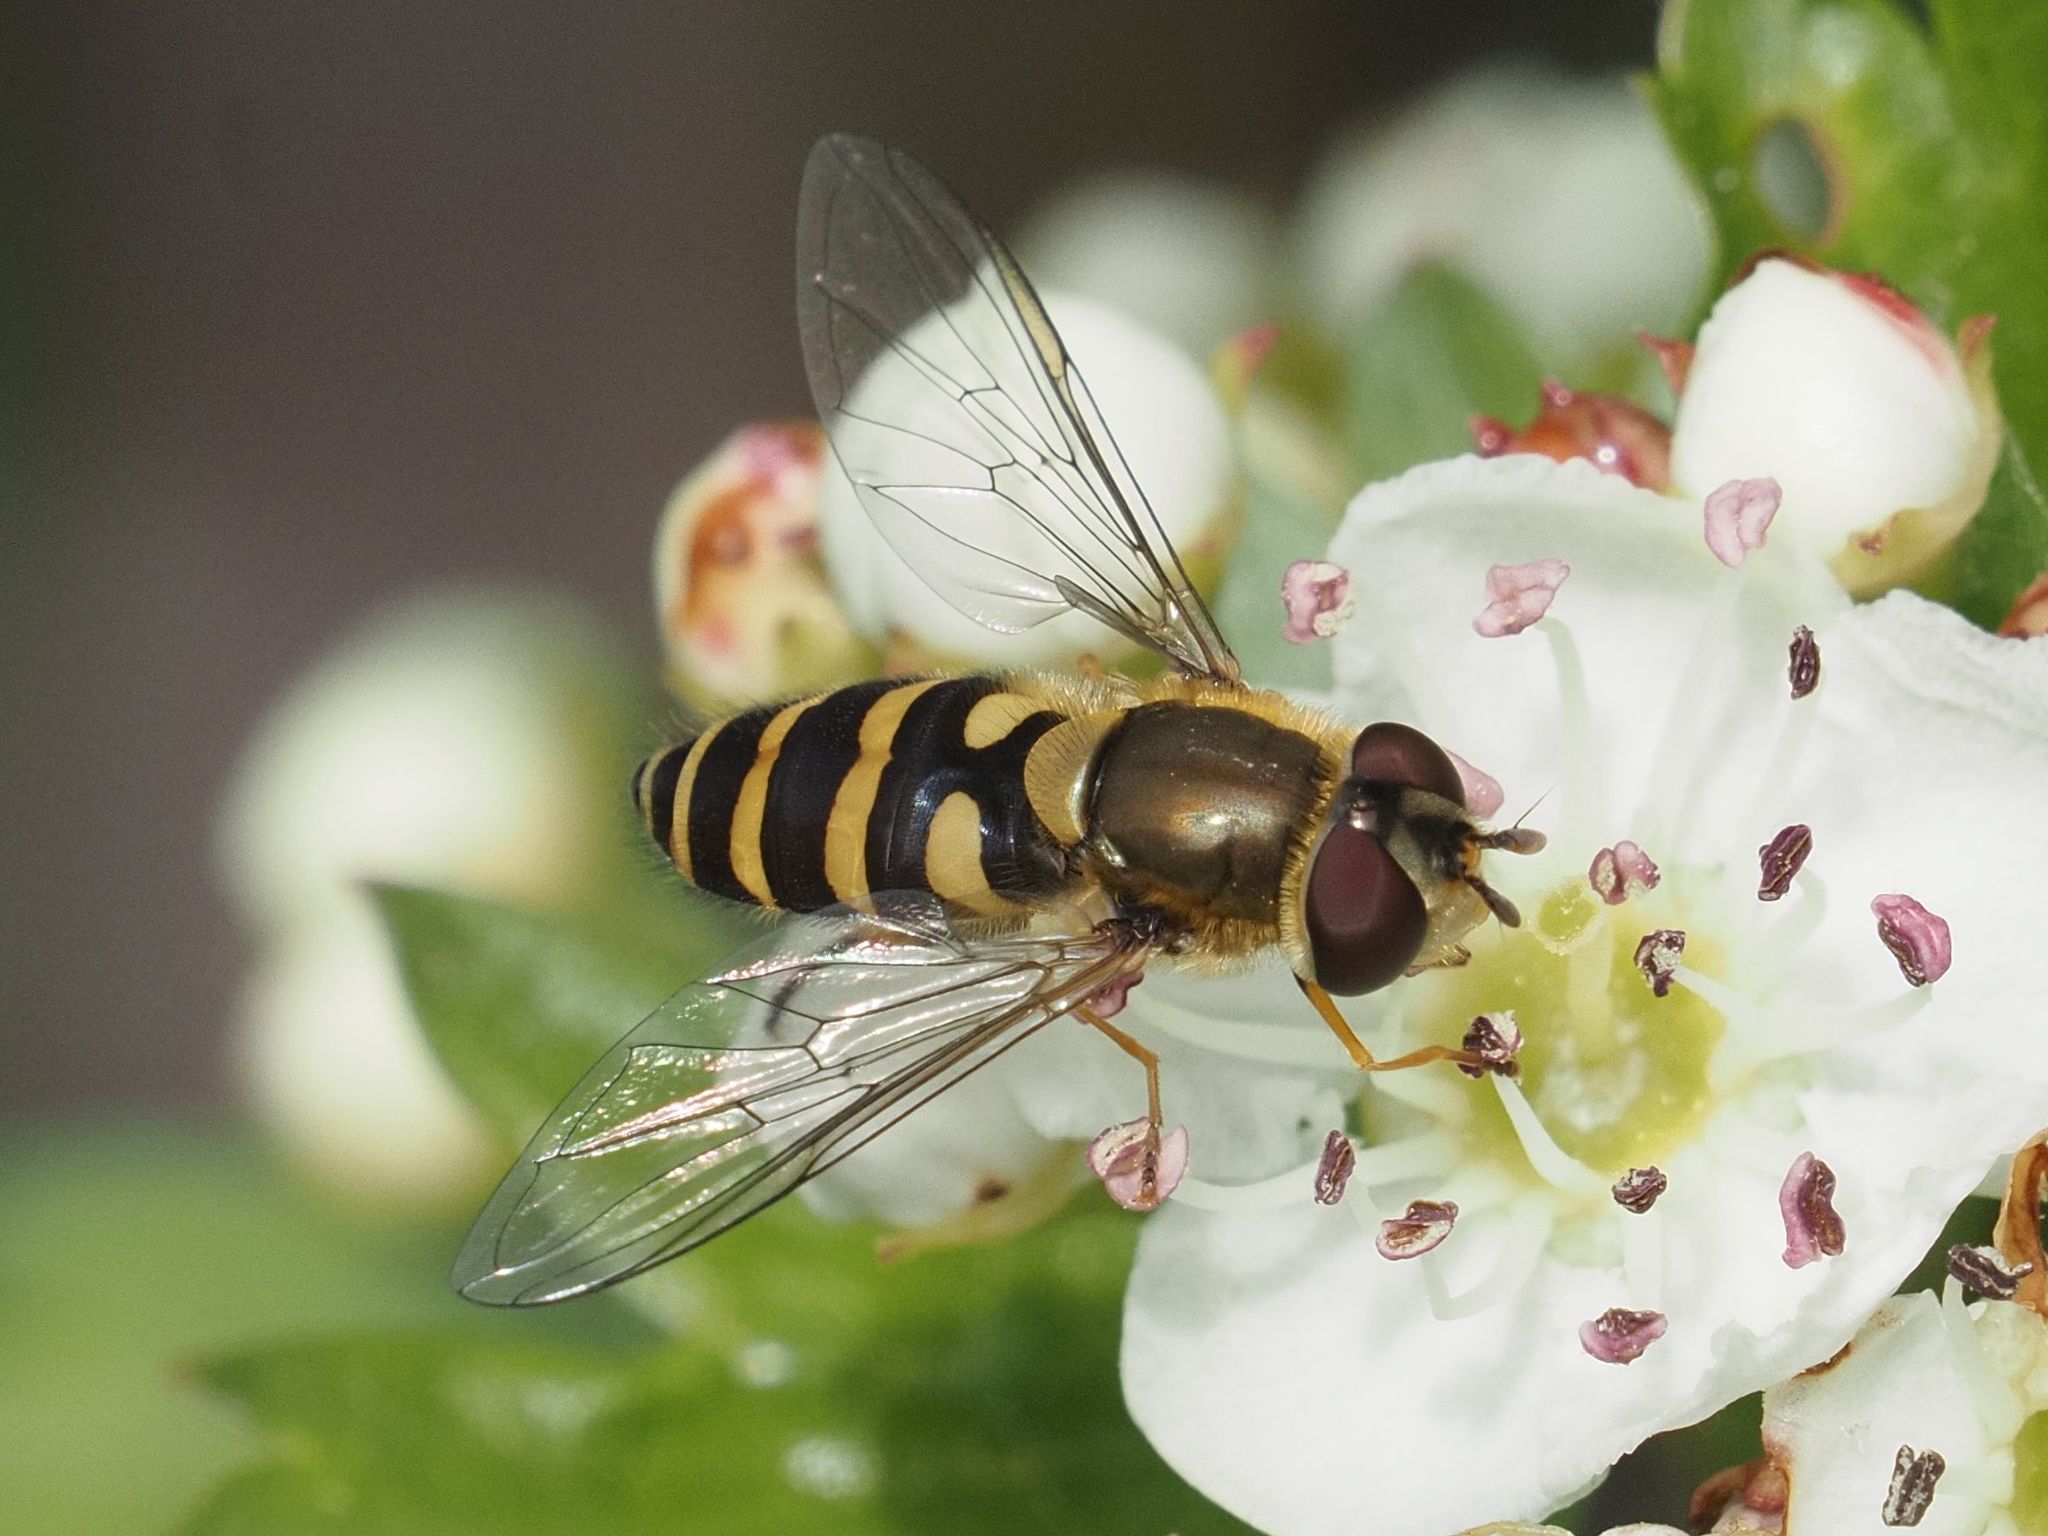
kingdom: Animalia
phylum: Arthropoda
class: Insecta
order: Diptera
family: Syrphidae
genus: Syrphus
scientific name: Syrphus
